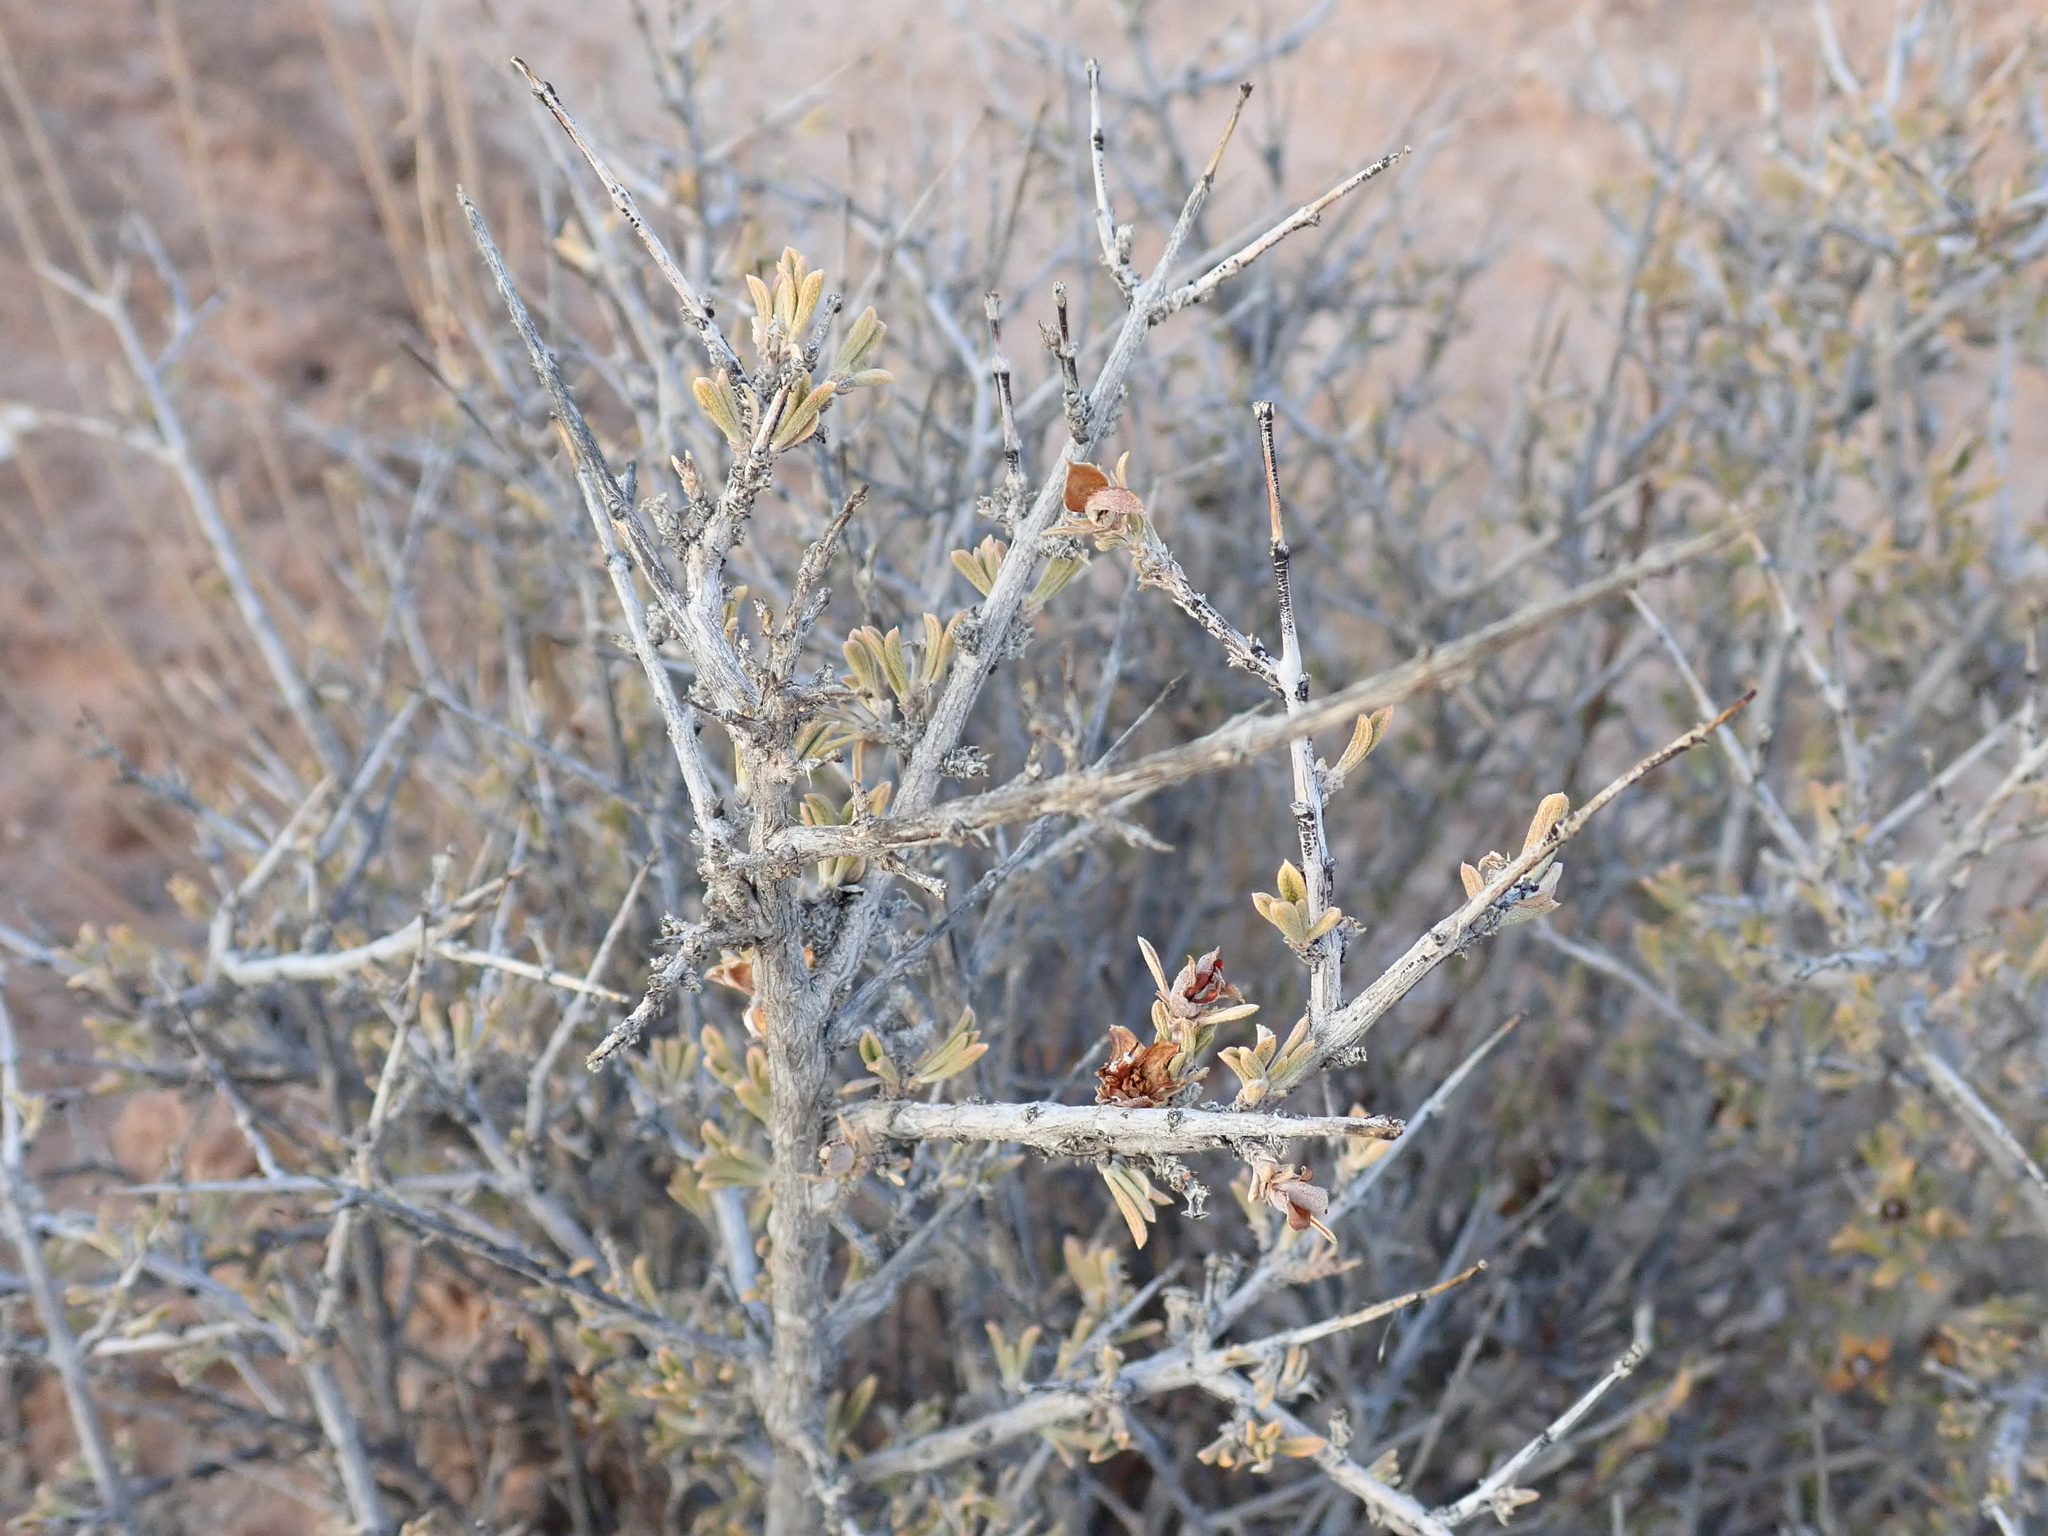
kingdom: Plantae
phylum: Tracheophyta
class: Magnoliopsida
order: Rosales
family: Rosaceae
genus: Coleogyne
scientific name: Coleogyne ramosissima
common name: Blackbrush
